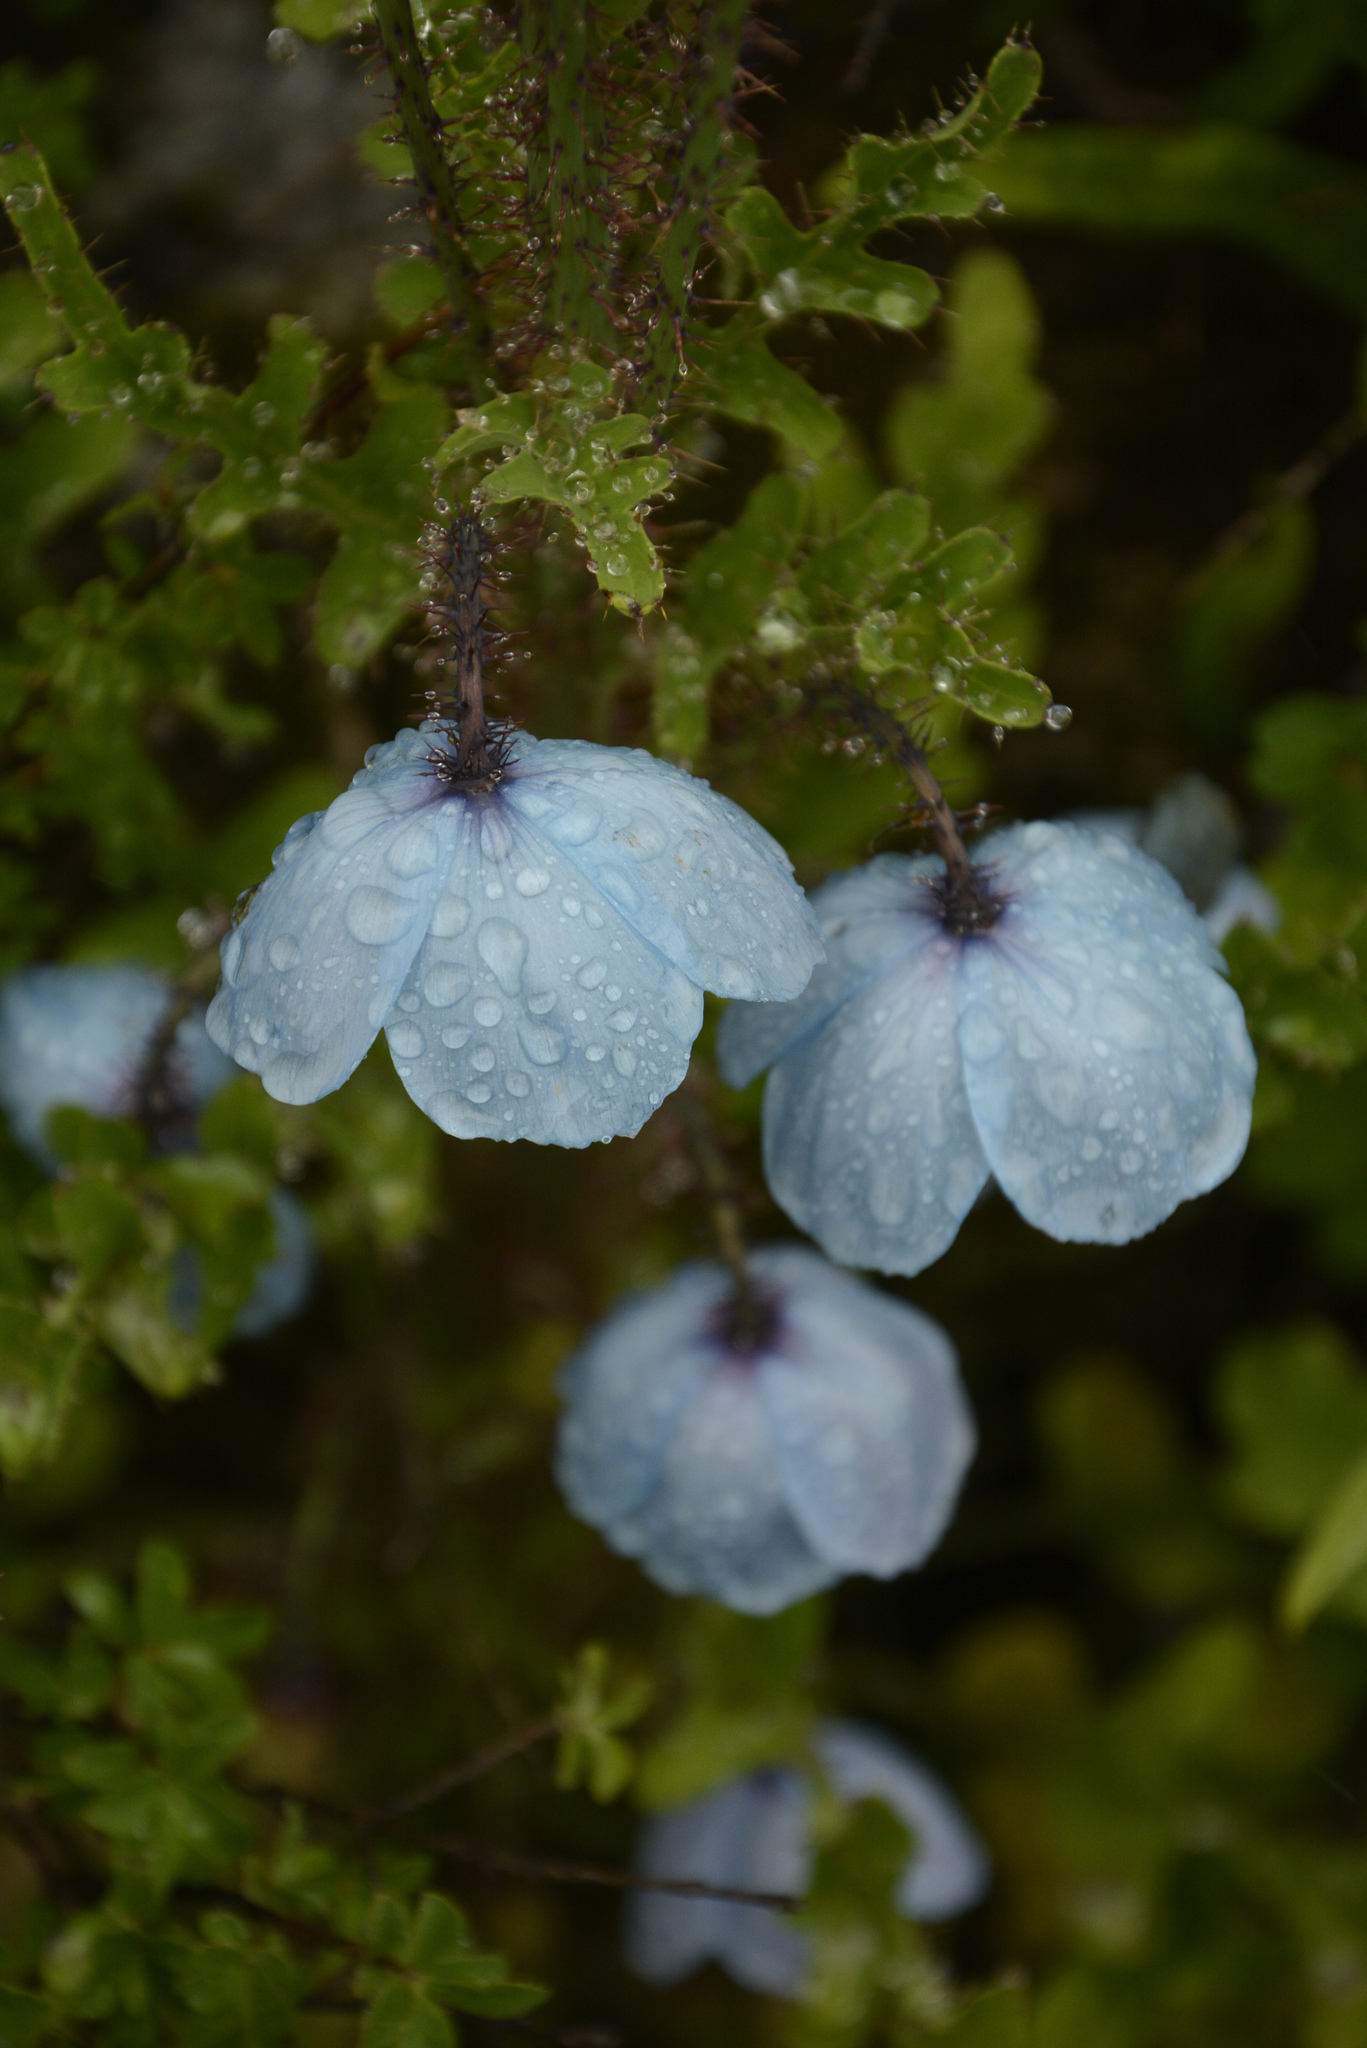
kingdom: Plantae
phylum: Tracheophyta
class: Magnoliopsida
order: Ranunculales
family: Papaveraceae
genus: Meconopsis
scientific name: Meconopsis aculeata
